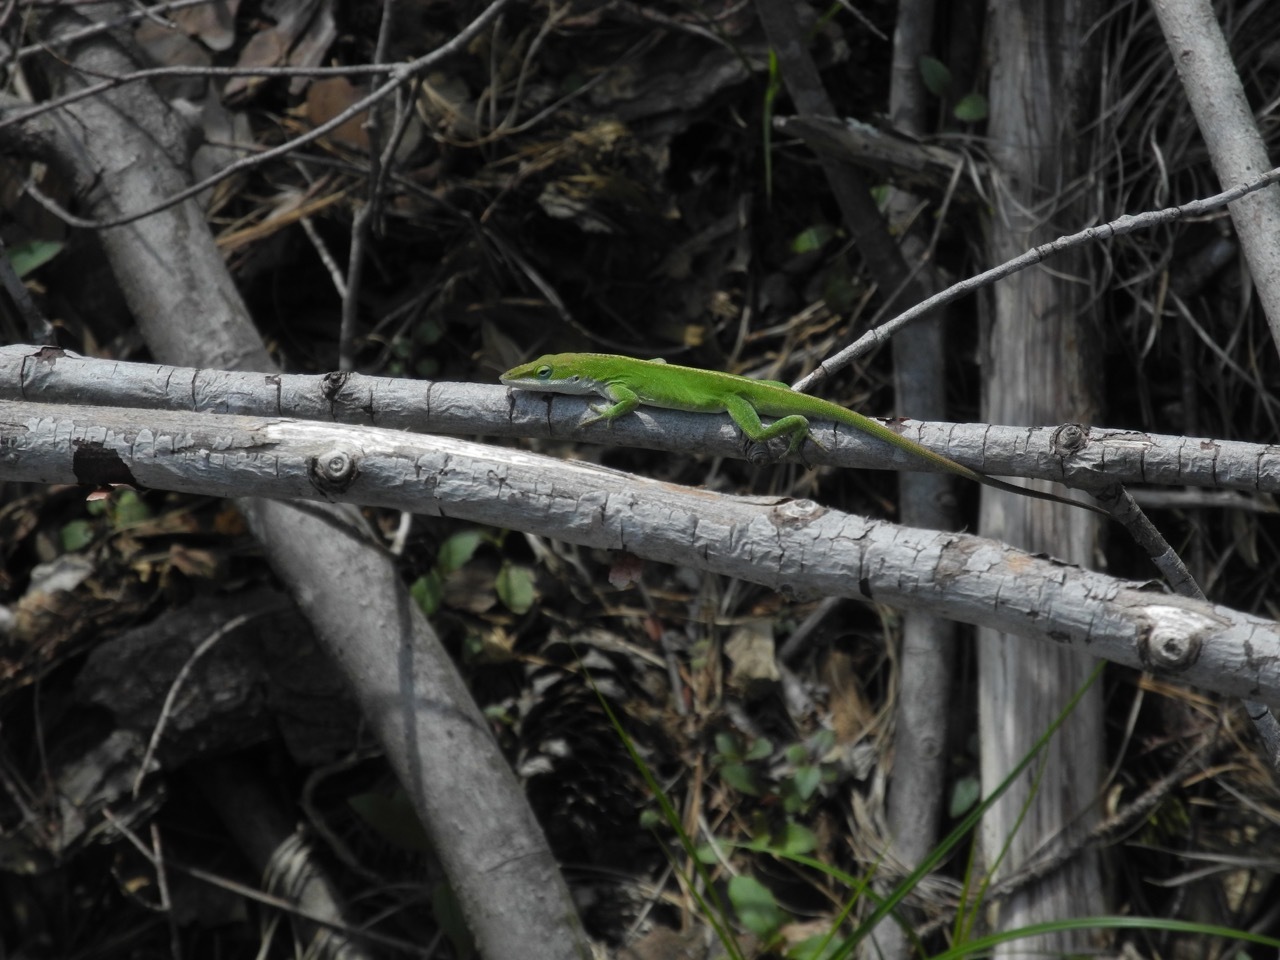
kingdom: Animalia
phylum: Chordata
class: Squamata
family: Dactyloidae
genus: Anolis
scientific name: Anolis carolinensis
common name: Green anole
